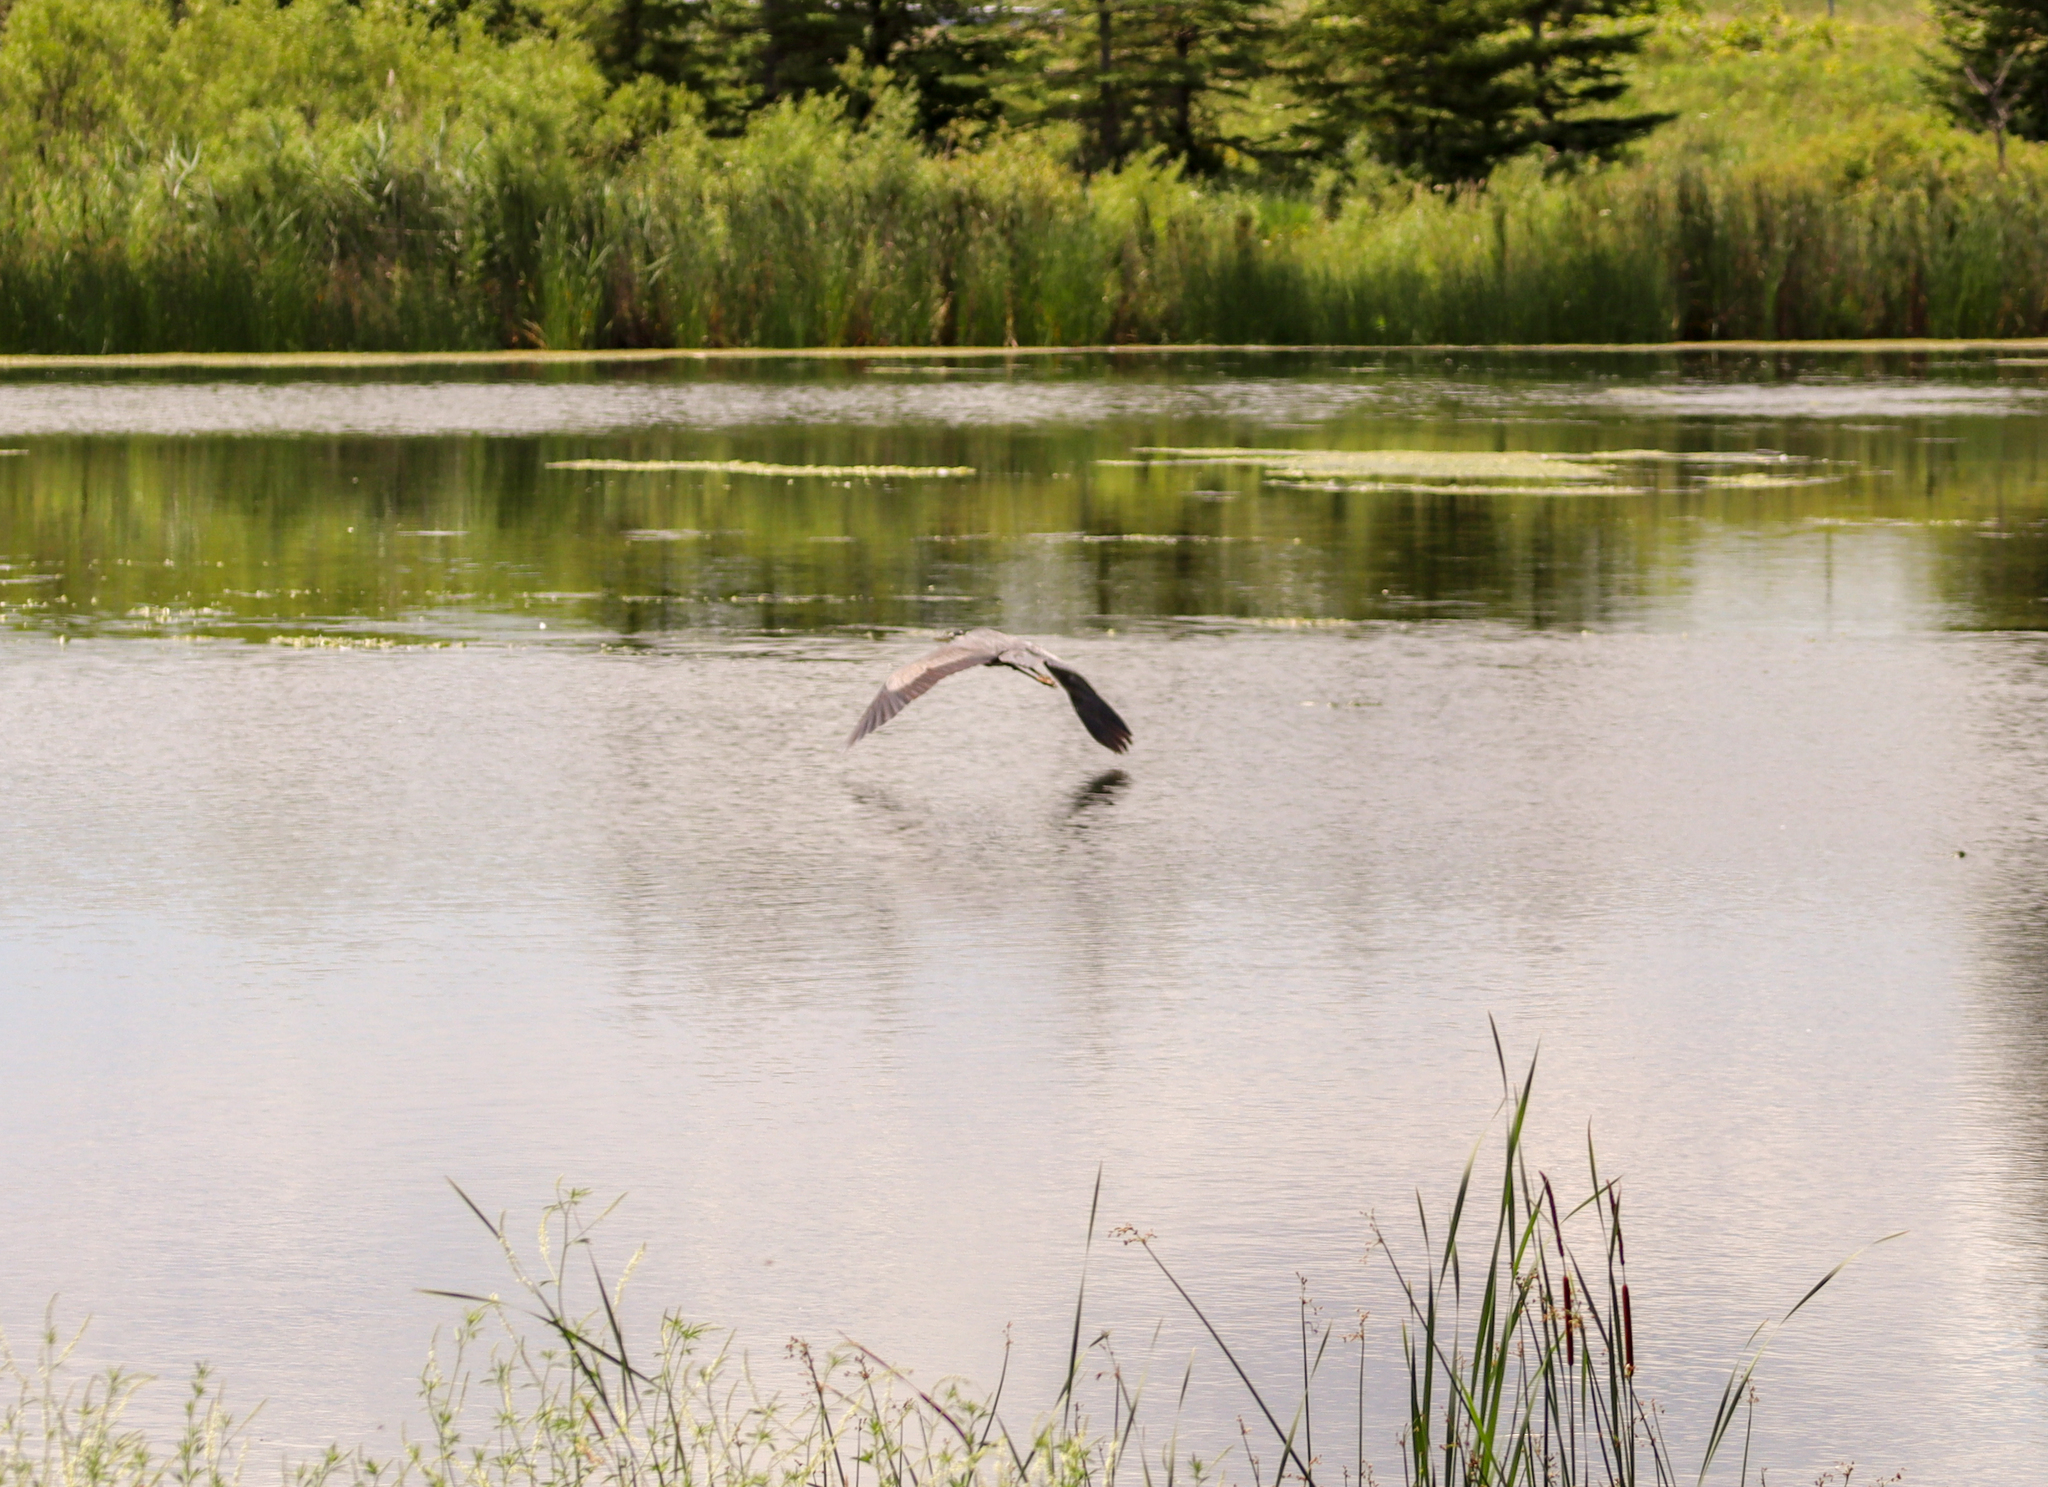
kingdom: Animalia
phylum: Chordata
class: Aves
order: Pelecaniformes
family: Ardeidae
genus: Ardea
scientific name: Ardea herodias
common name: Great blue heron
